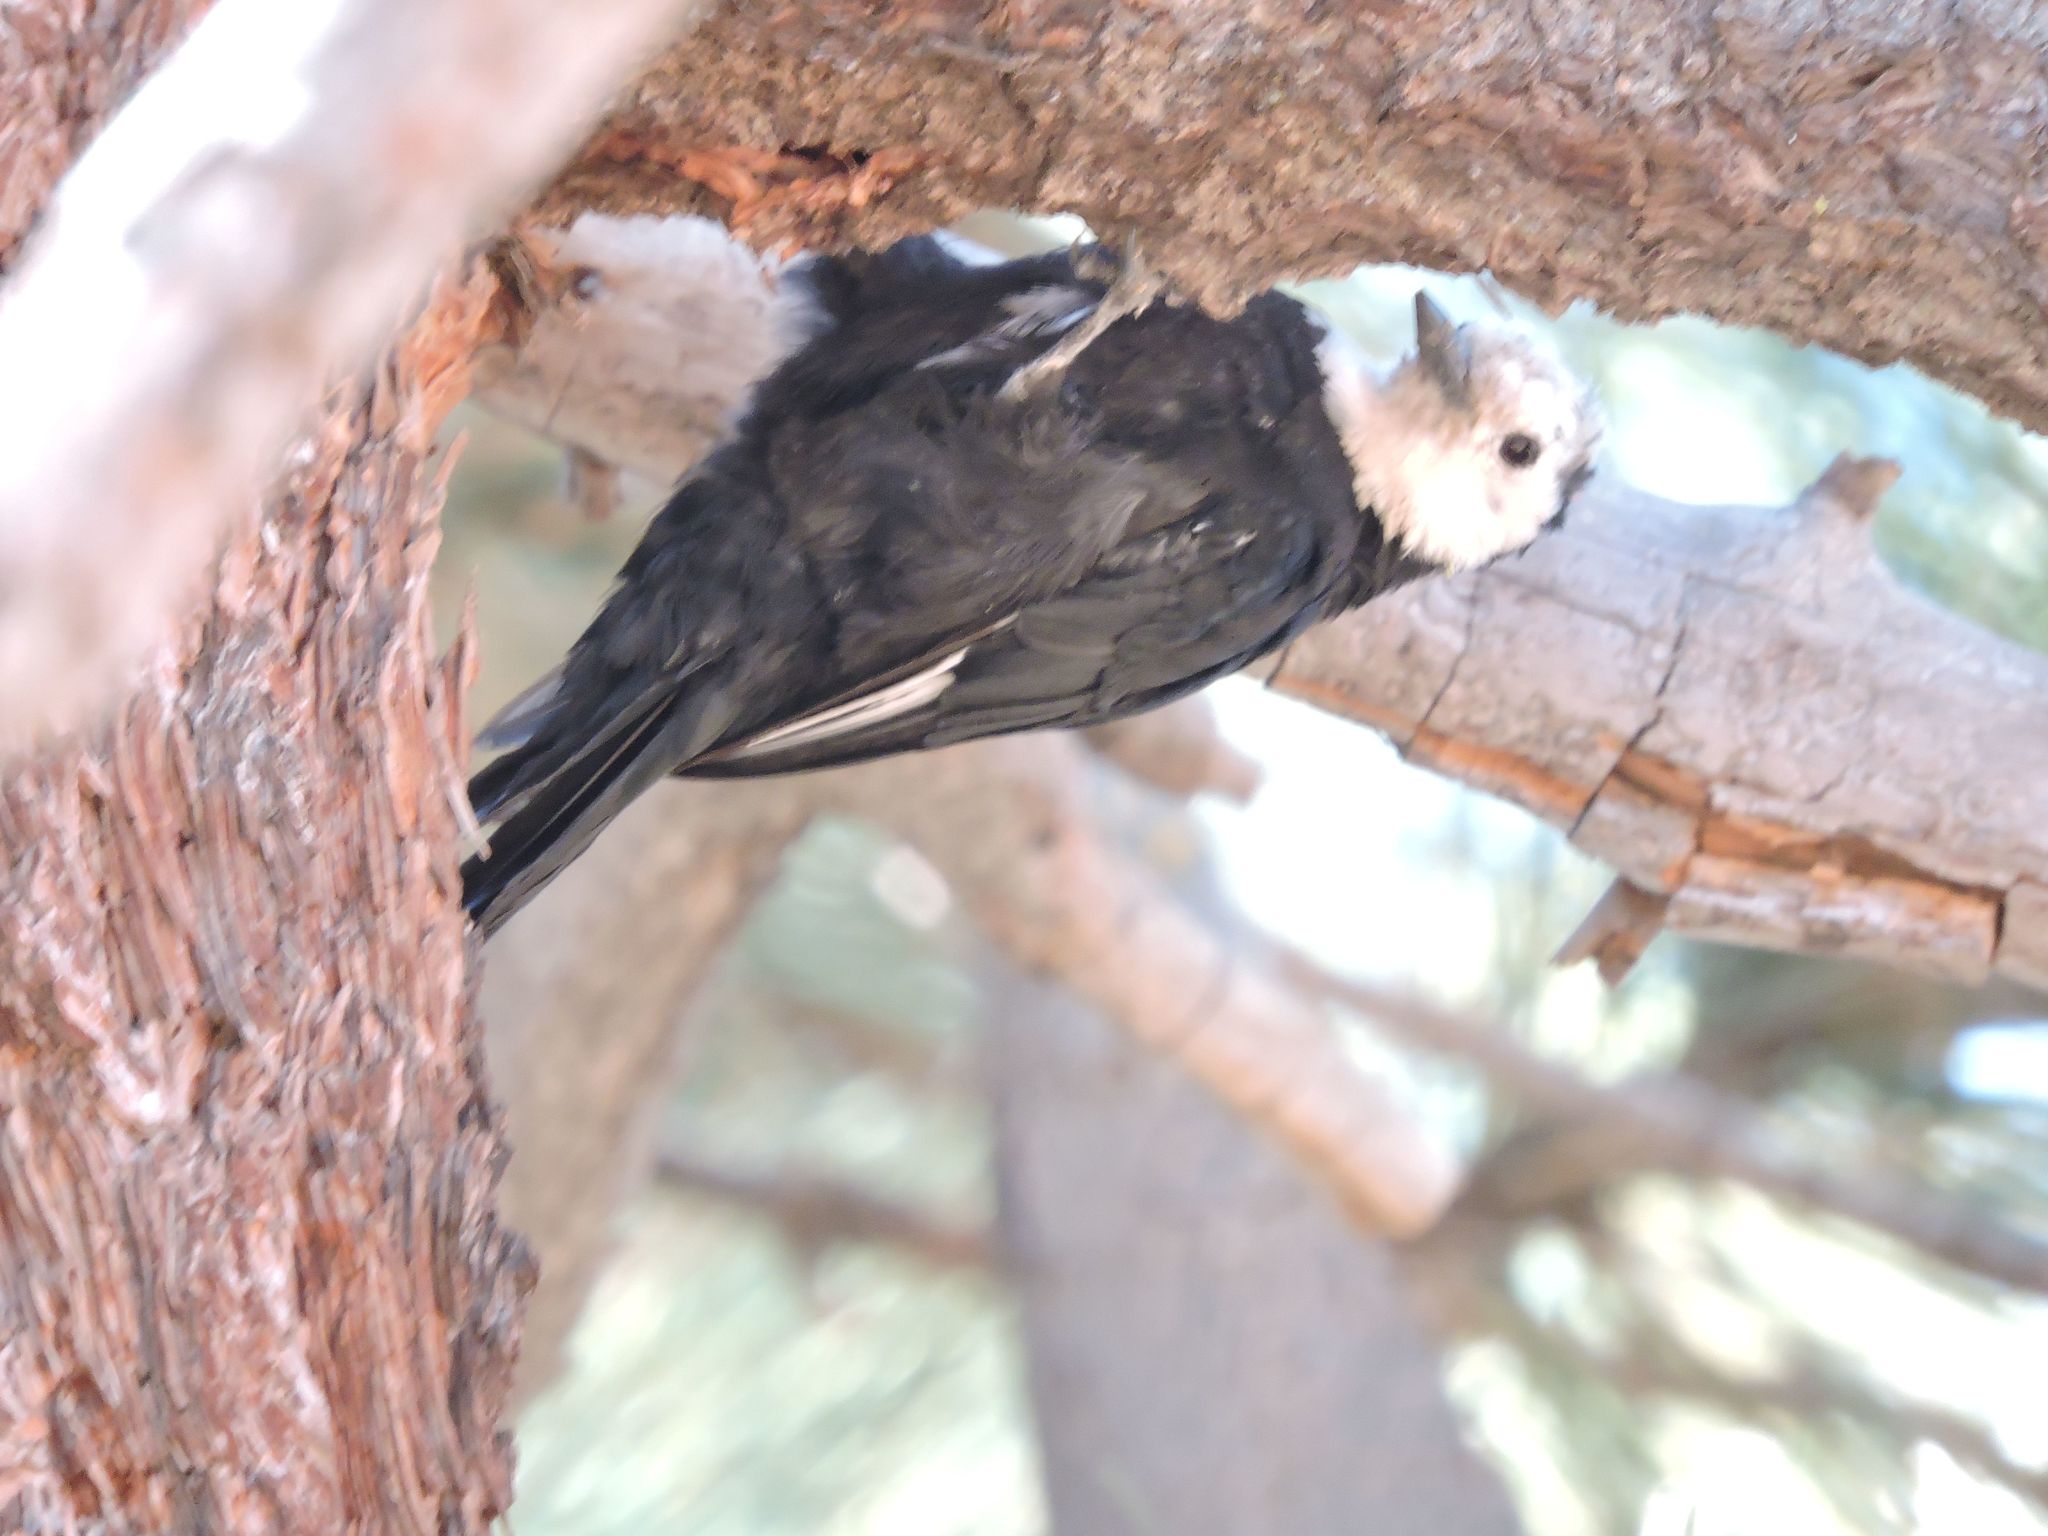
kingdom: Animalia
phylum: Chordata
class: Aves
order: Piciformes
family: Picidae
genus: Leuconotopicus
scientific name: Leuconotopicus albolarvatus
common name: White-headed woodpecker
